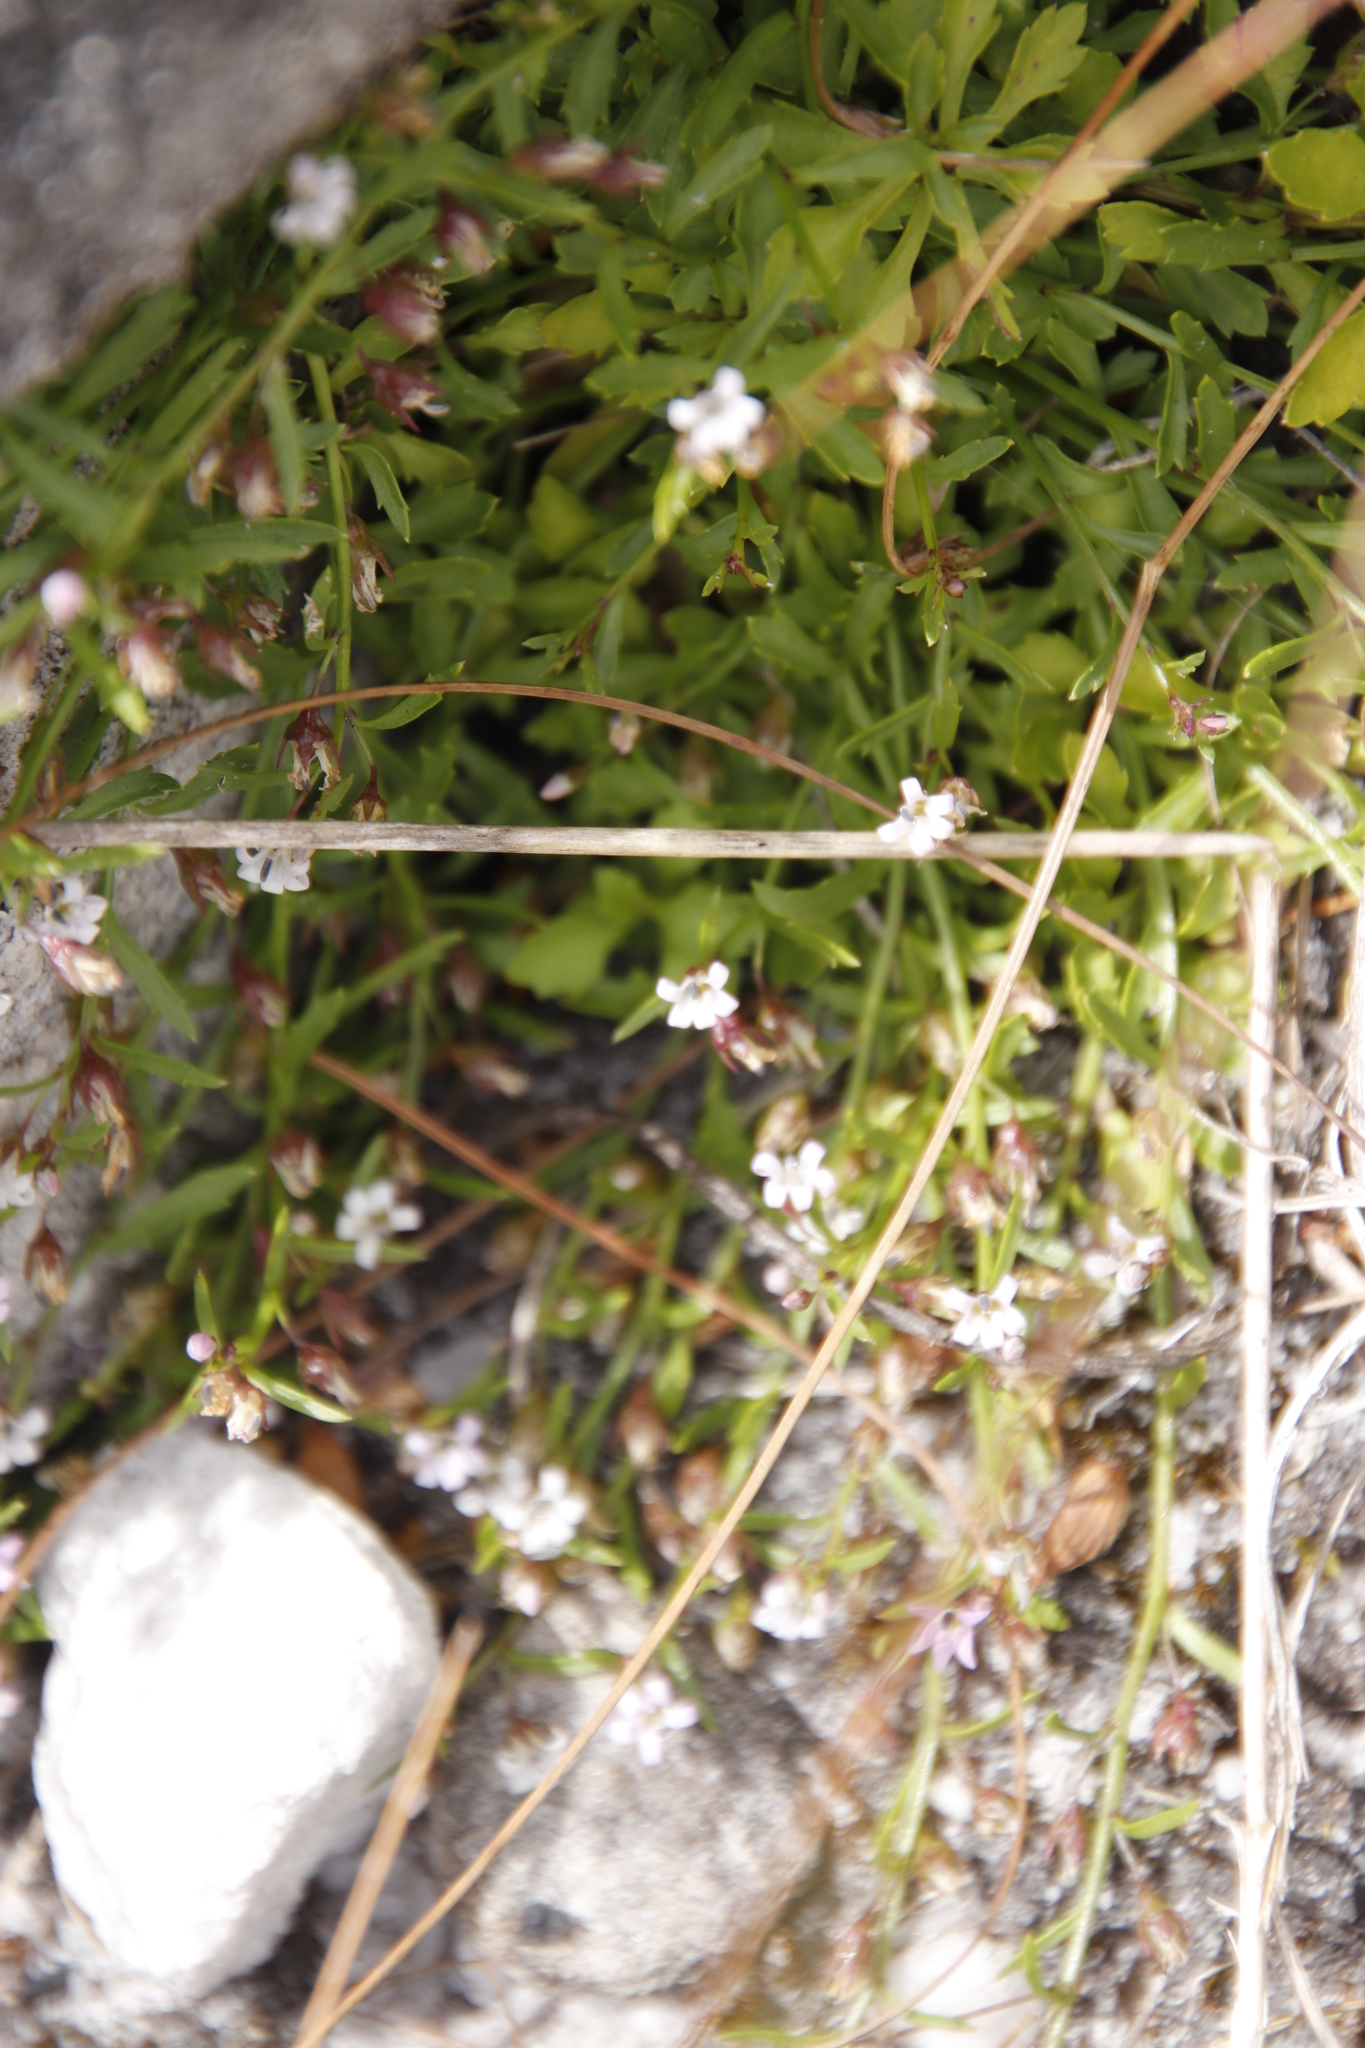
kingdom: Plantae
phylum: Tracheophyta
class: Magnoliopsida
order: Asterales
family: Campanulaceae
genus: Lobelia
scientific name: Lobelia eckloniana
